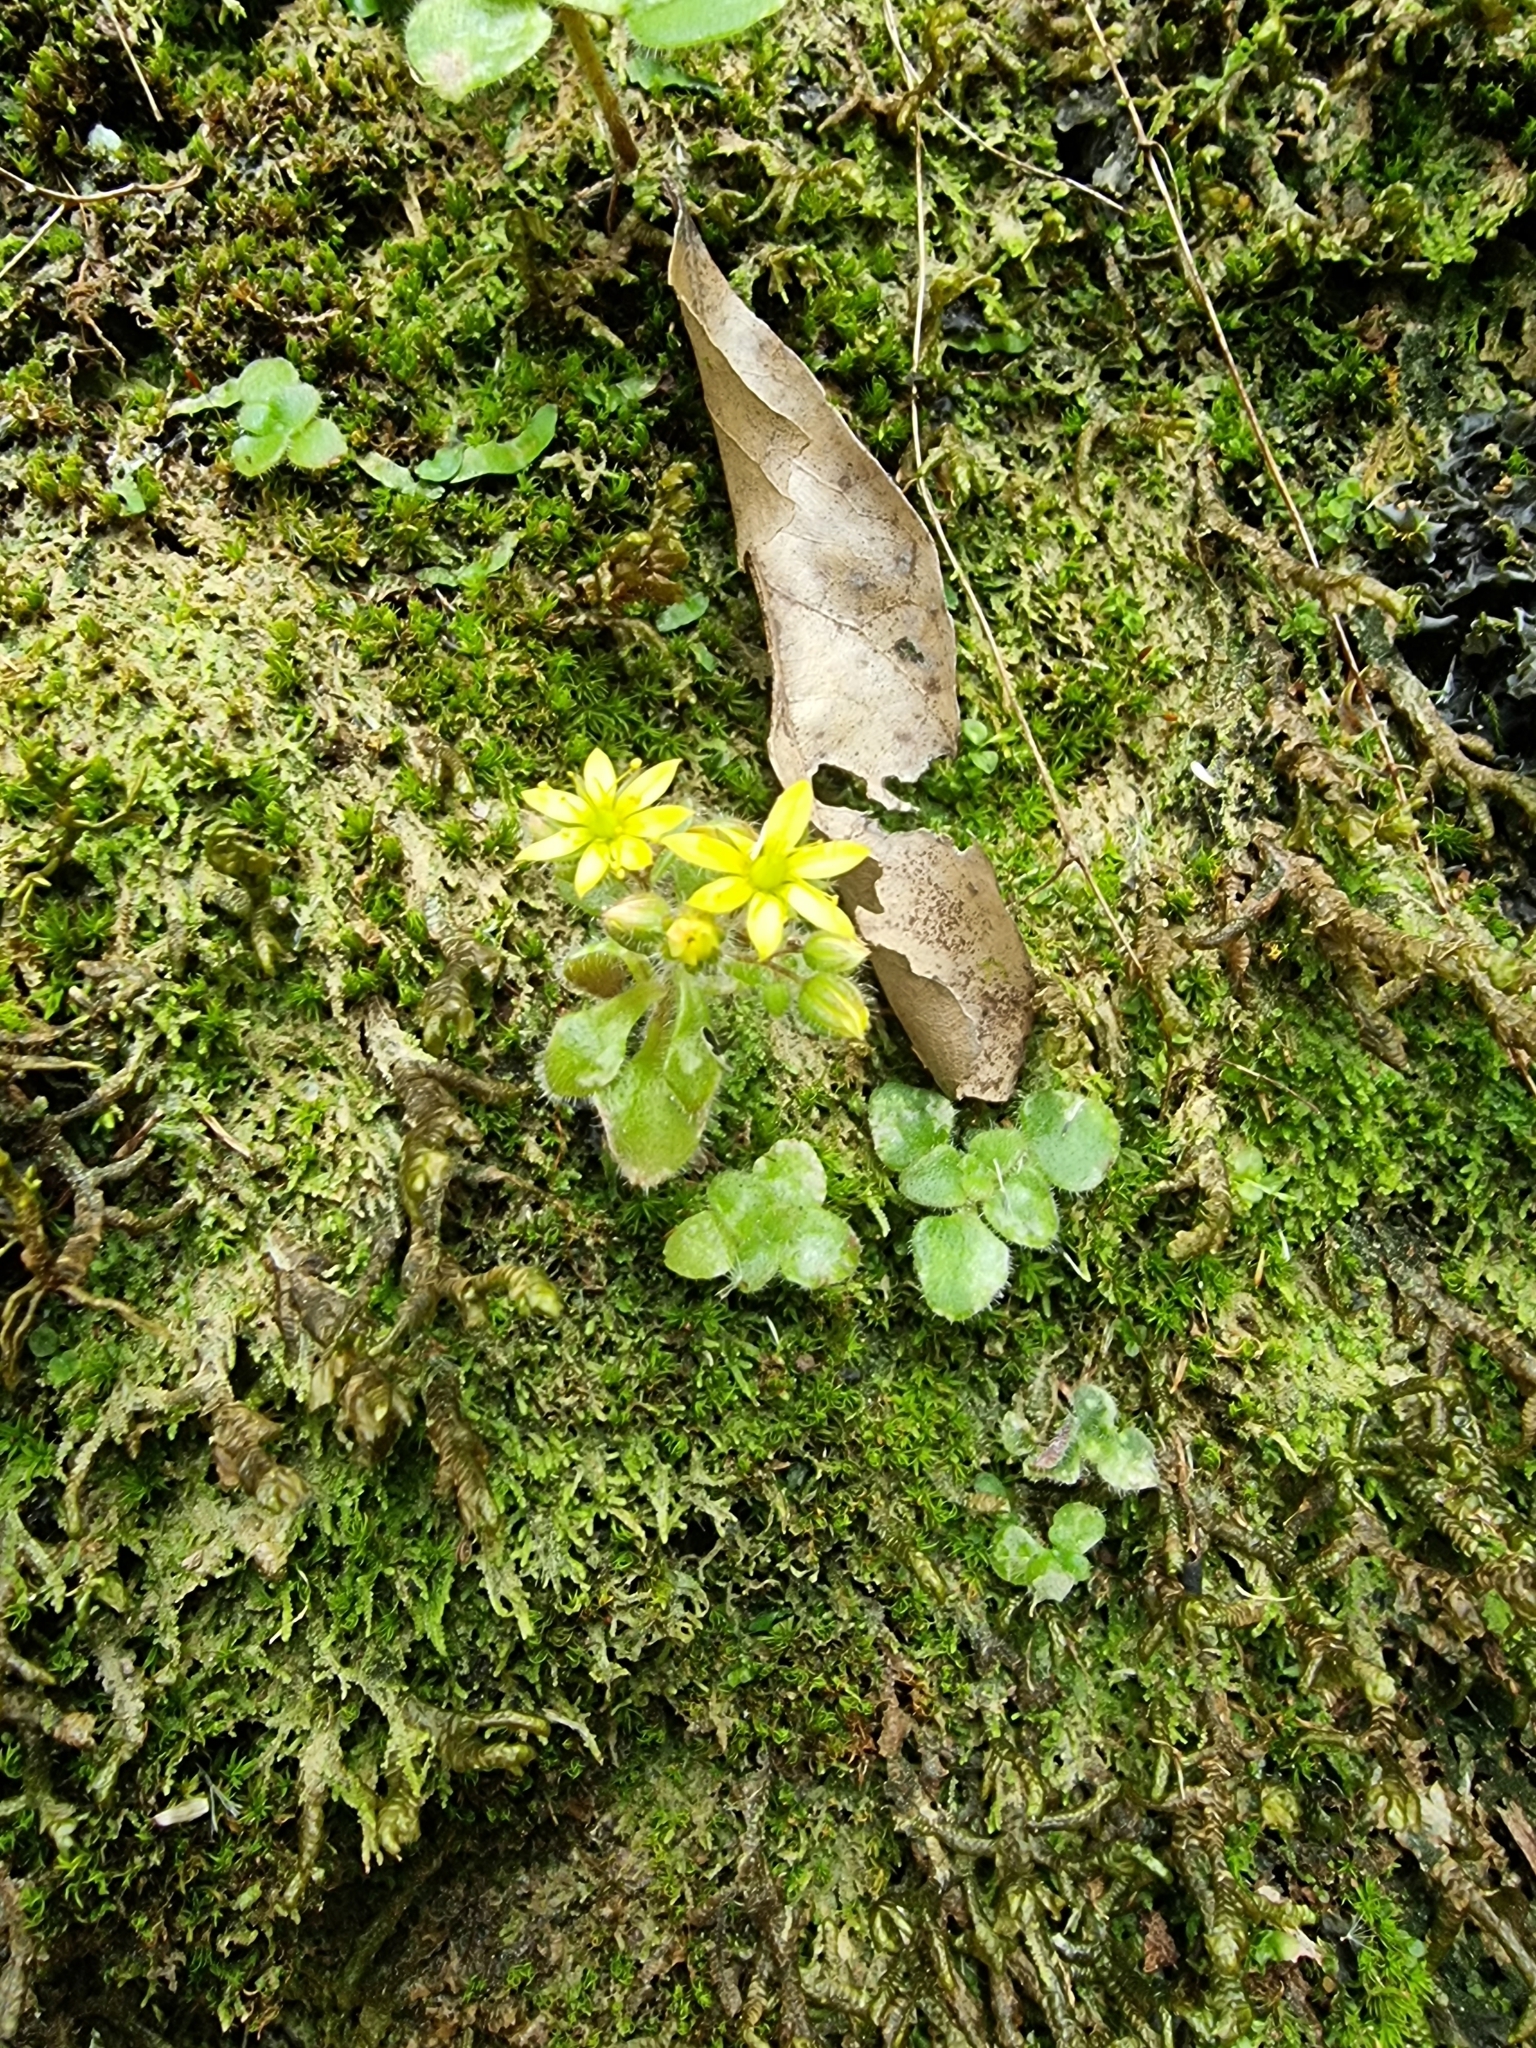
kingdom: Plantae
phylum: Tracheophyta
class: Magnoliopsida
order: Saxifragales
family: Crassulaceae
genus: Aichryson
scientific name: Aichryson villosum
